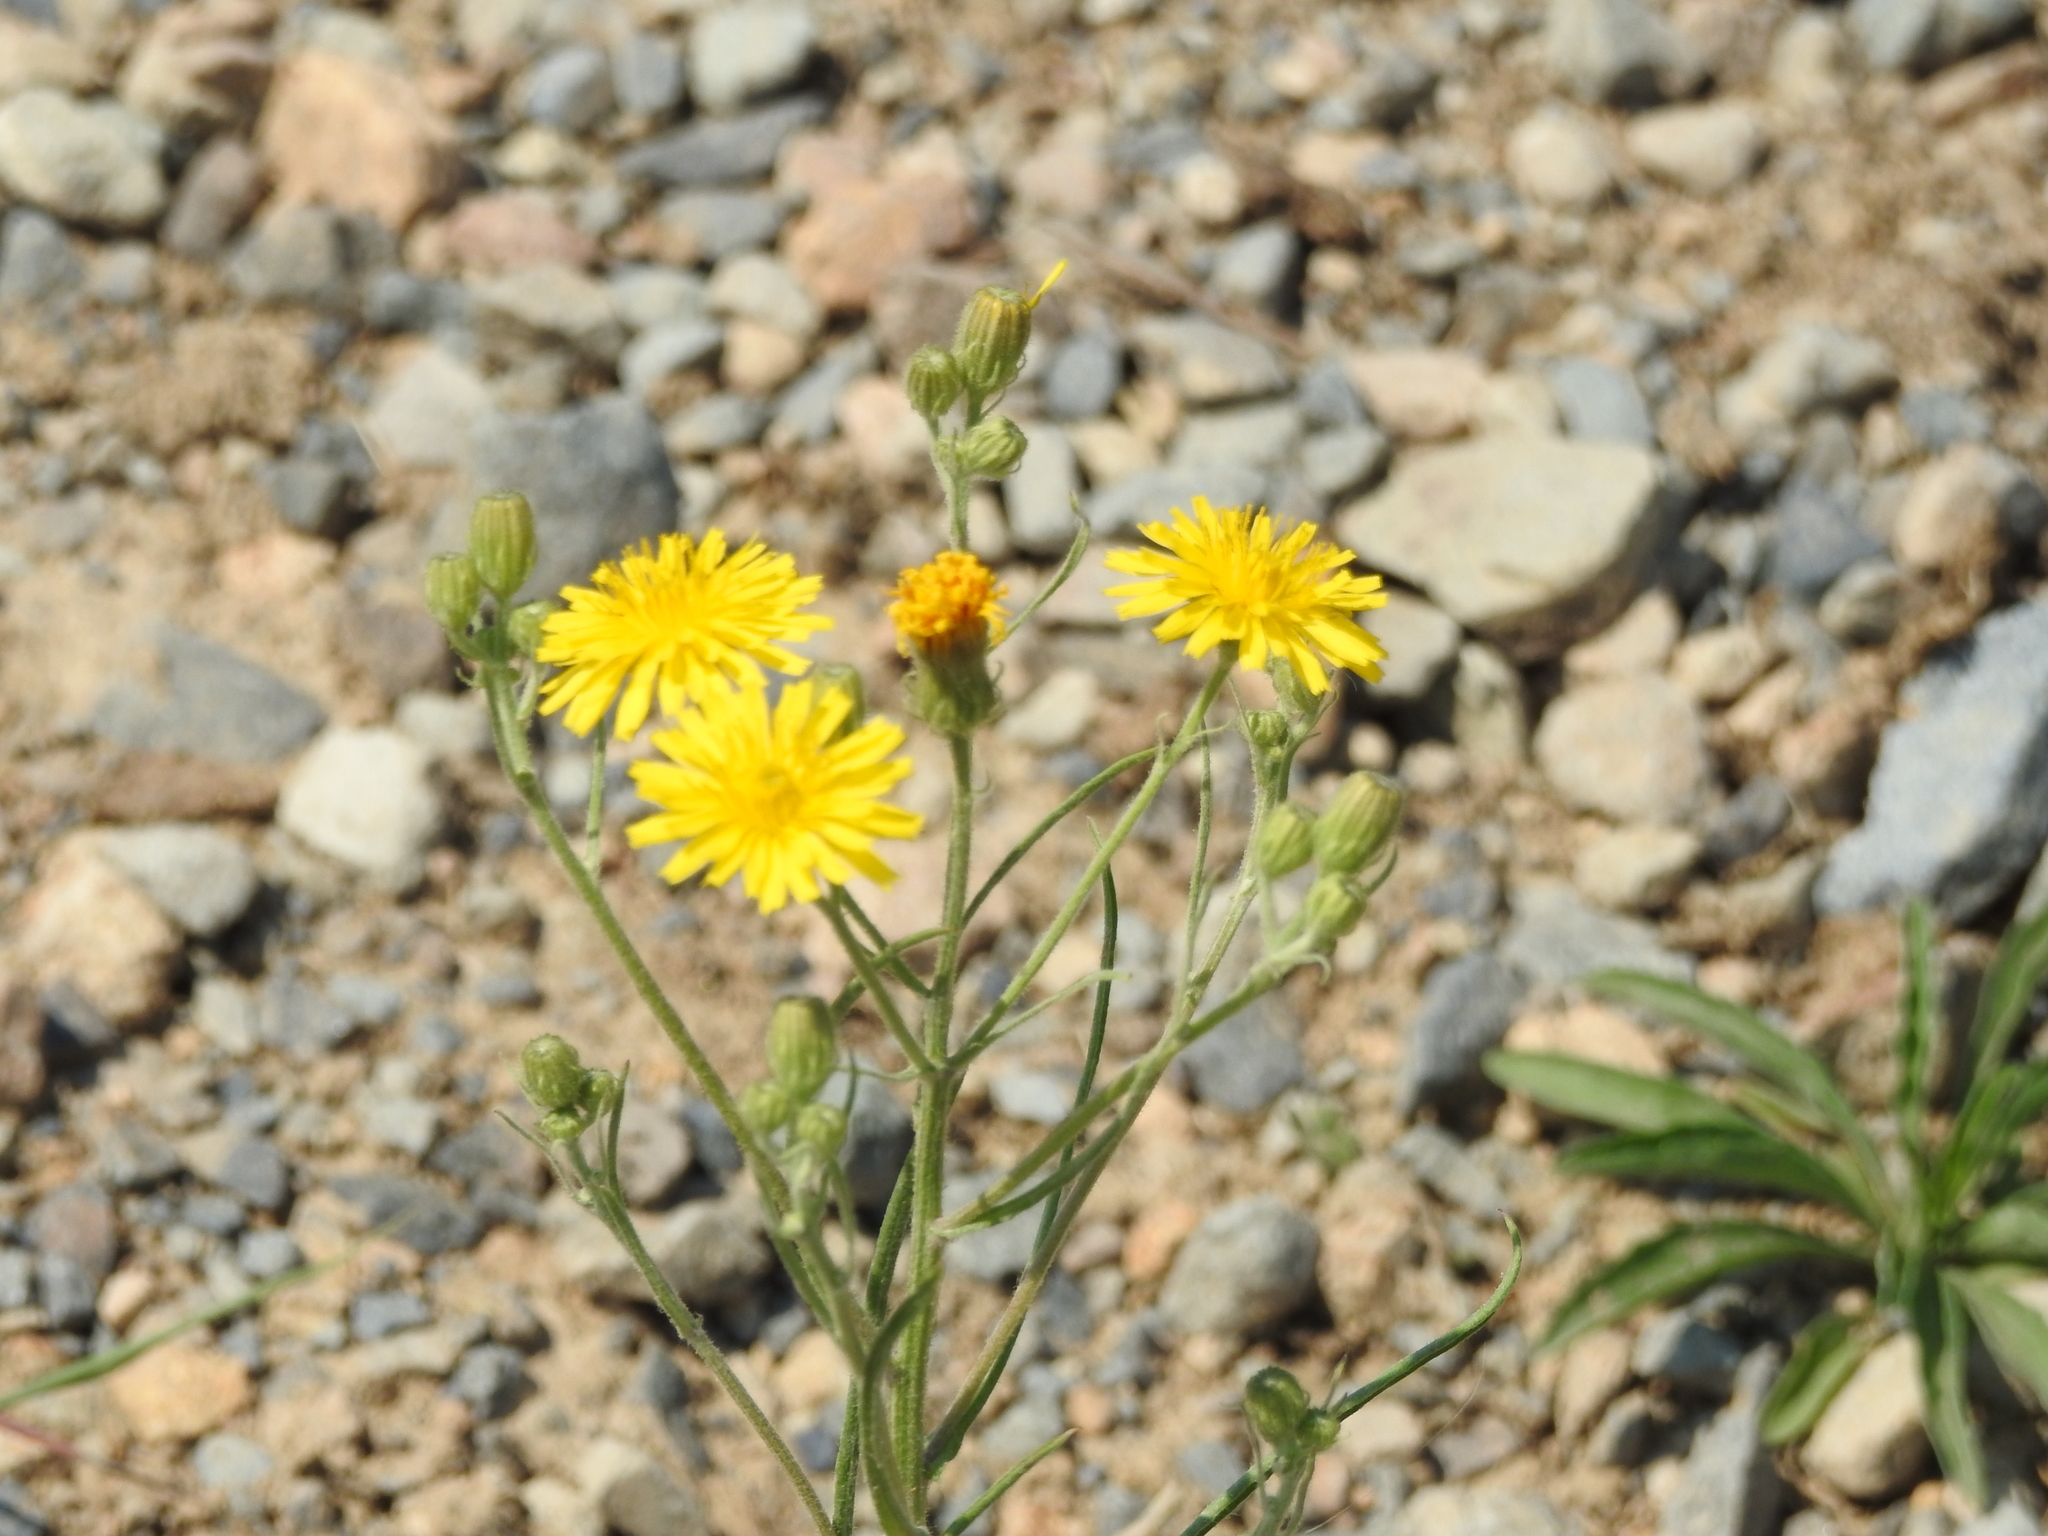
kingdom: Plantae
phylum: Tracheophyta
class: Magnoliopsida
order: Asterales
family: Asteraceae
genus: Crepis
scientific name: Crepis tectorum
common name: Narrow-leaved hawk's-beard
